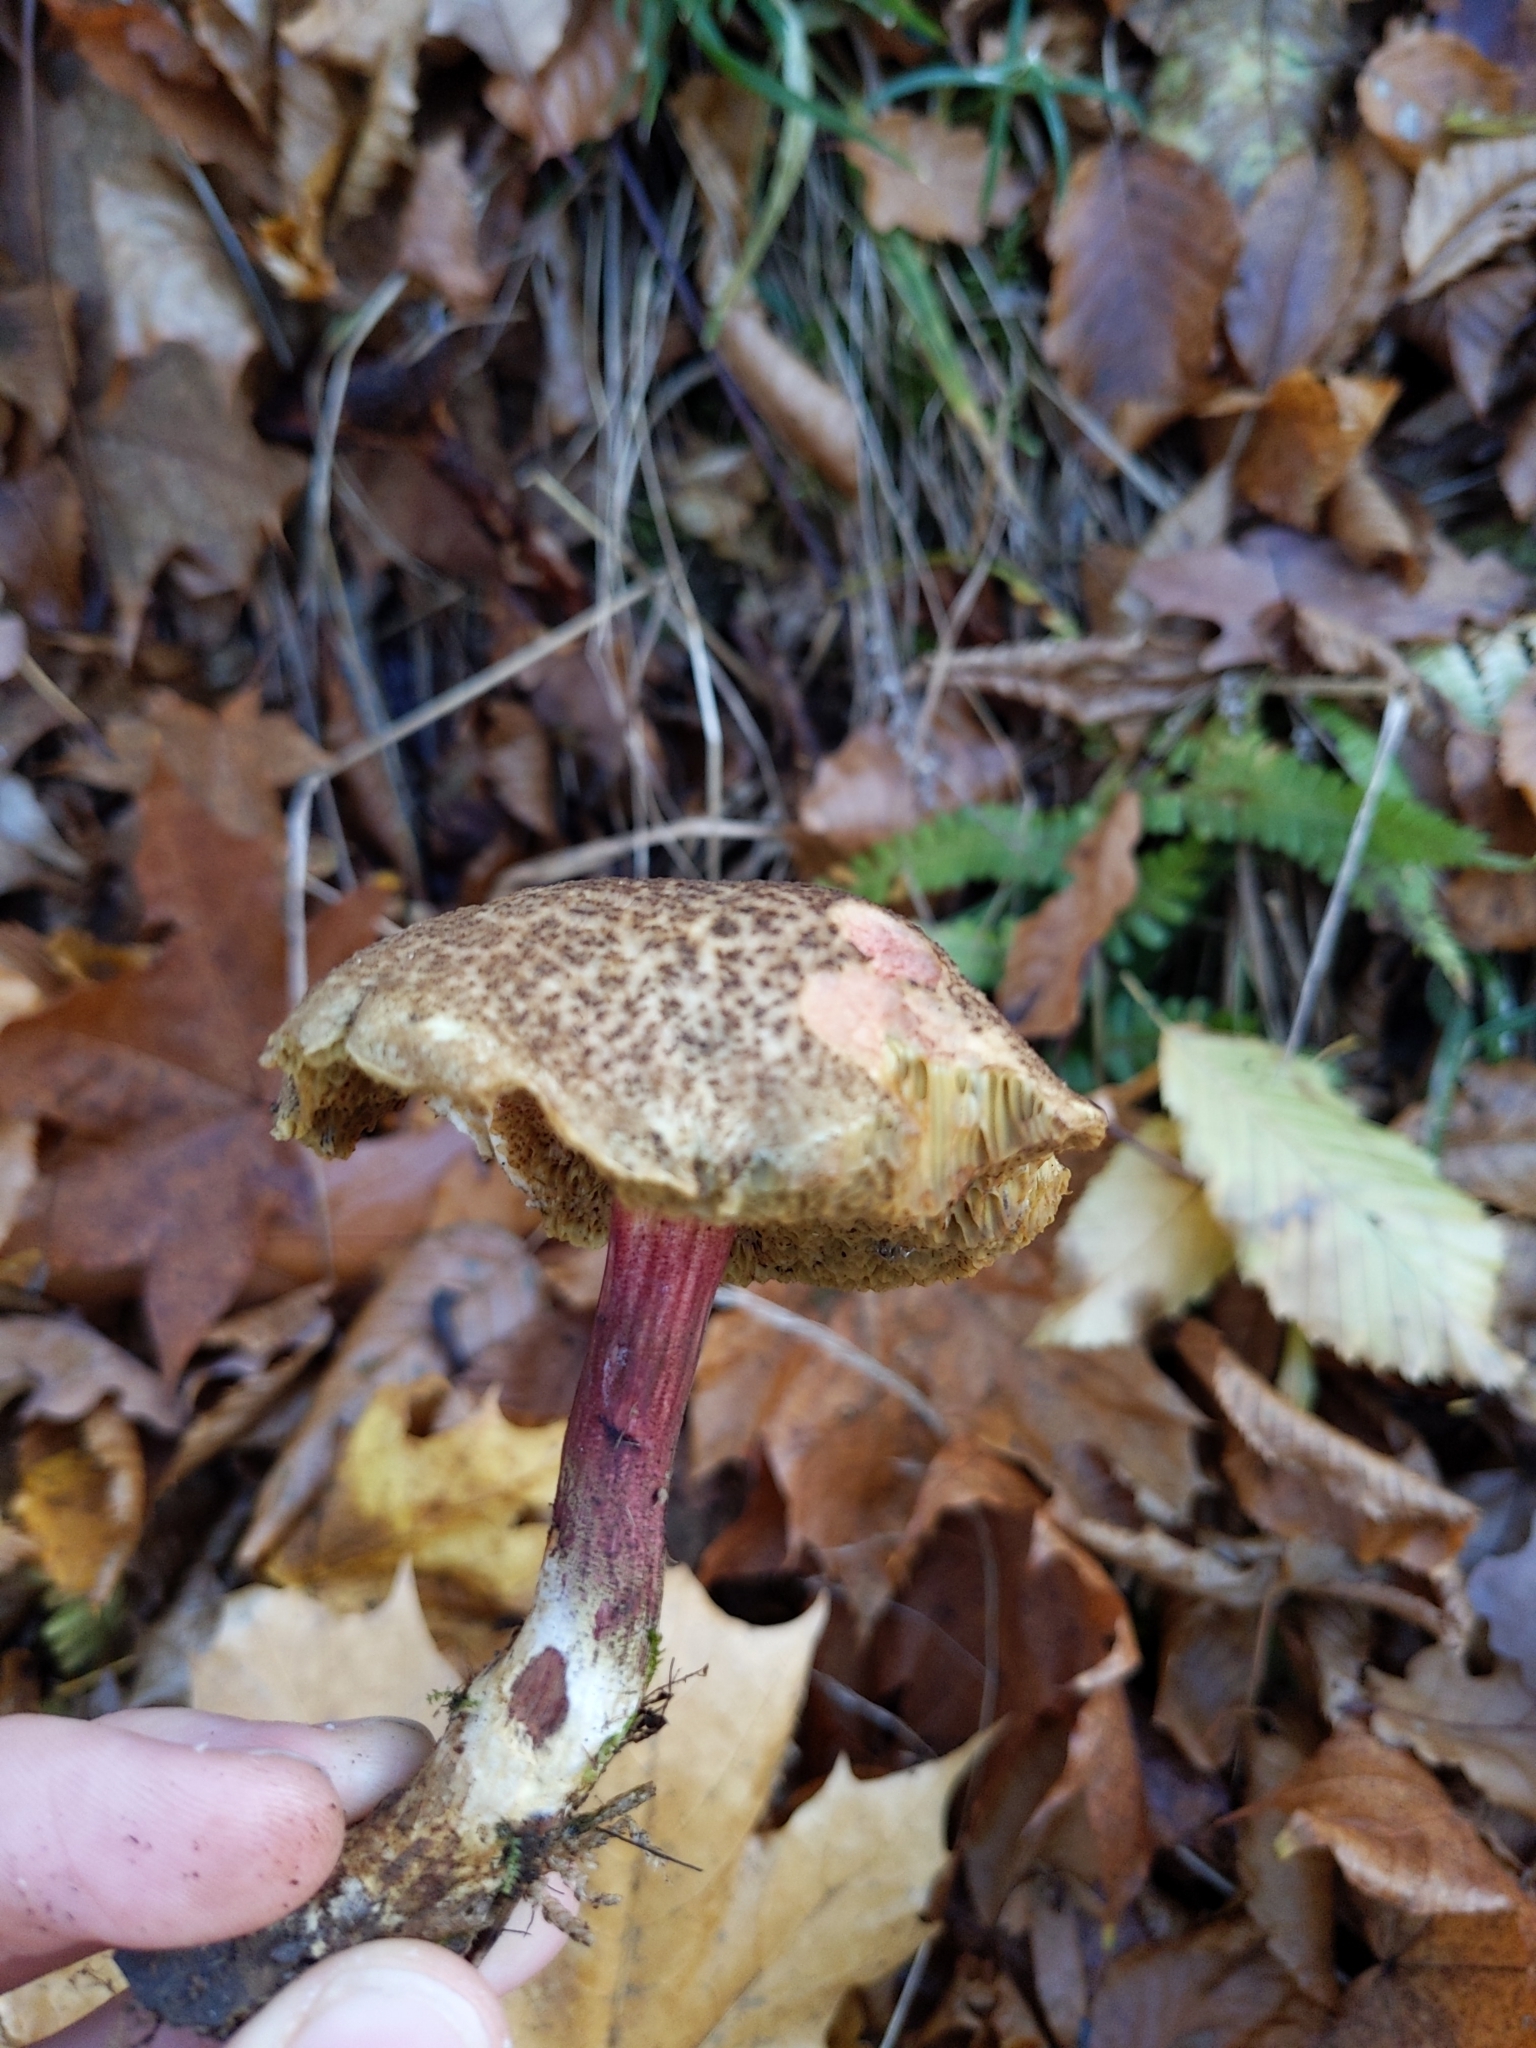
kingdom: Fungi
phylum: Basidiomycota
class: Agaricomycetes
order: Boletales
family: Boletaceae
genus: Xerocomellus
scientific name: Xerocomellus chrysenteron
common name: Red-cracking bolete
